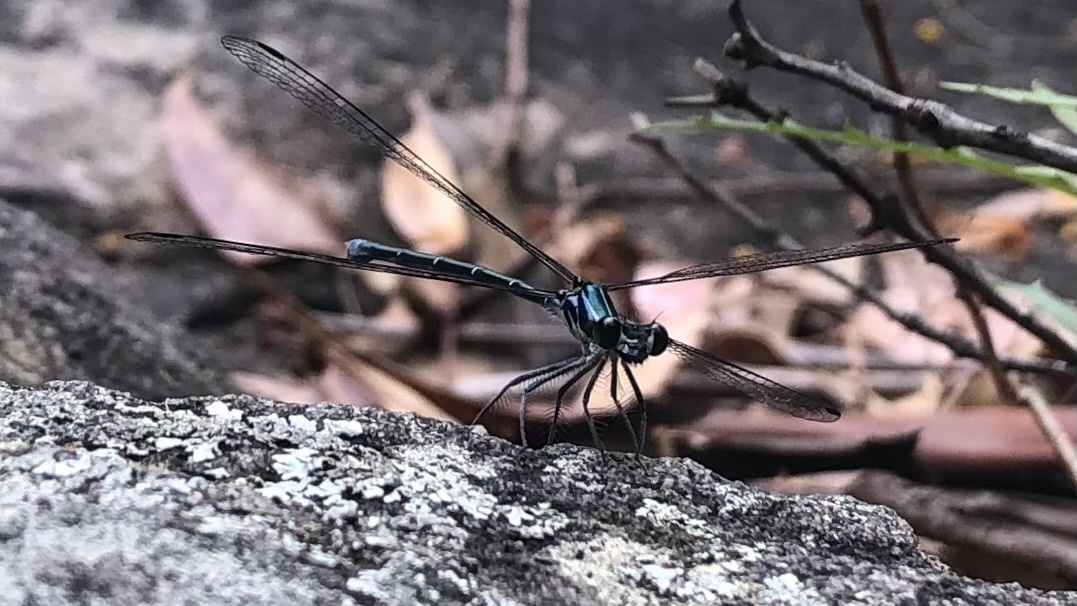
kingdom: Animalia
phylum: Arthropoda
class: Insecta
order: Odonata
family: Argiolestidae
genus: Austroargiolestes
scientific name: Austroargiolestes icteromelas
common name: Common flatwing
